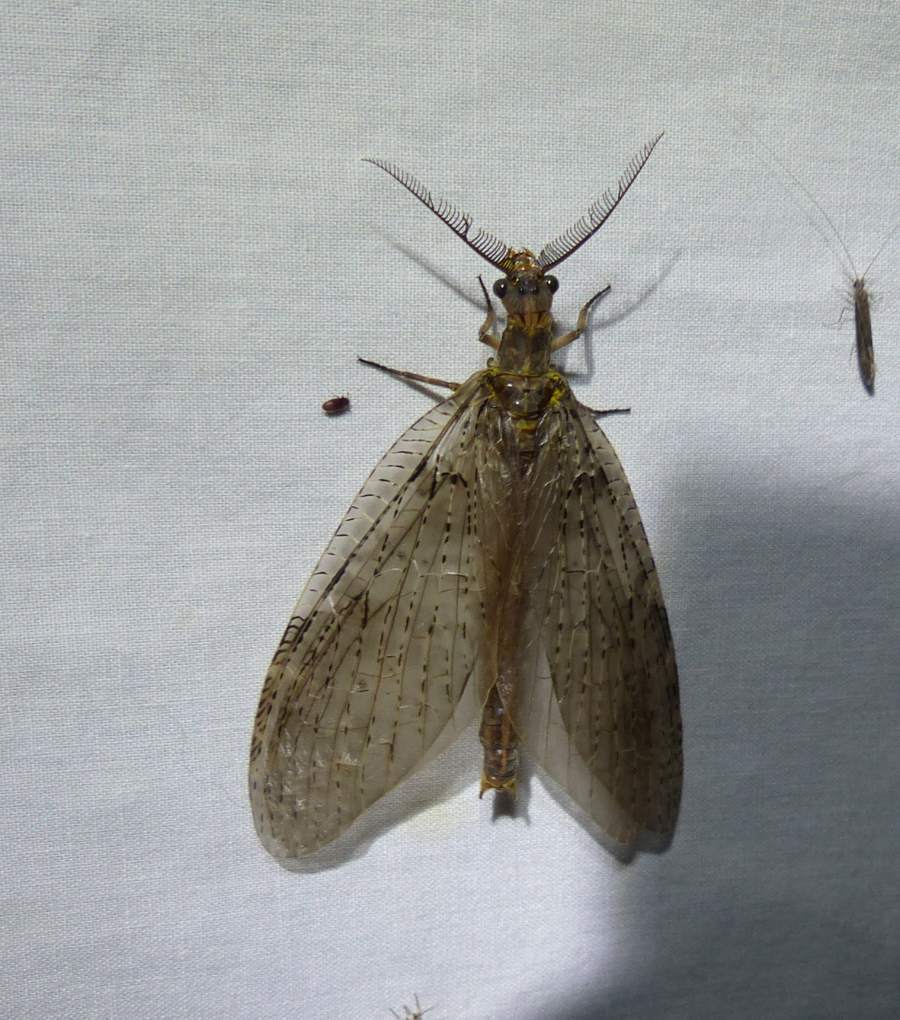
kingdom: Animalia
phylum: Arthropoda
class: Insecta
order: Megaloptera
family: Corydalidae
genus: Chauliodes
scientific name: Chauliodes pectinicornis
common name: Summer fishfly
